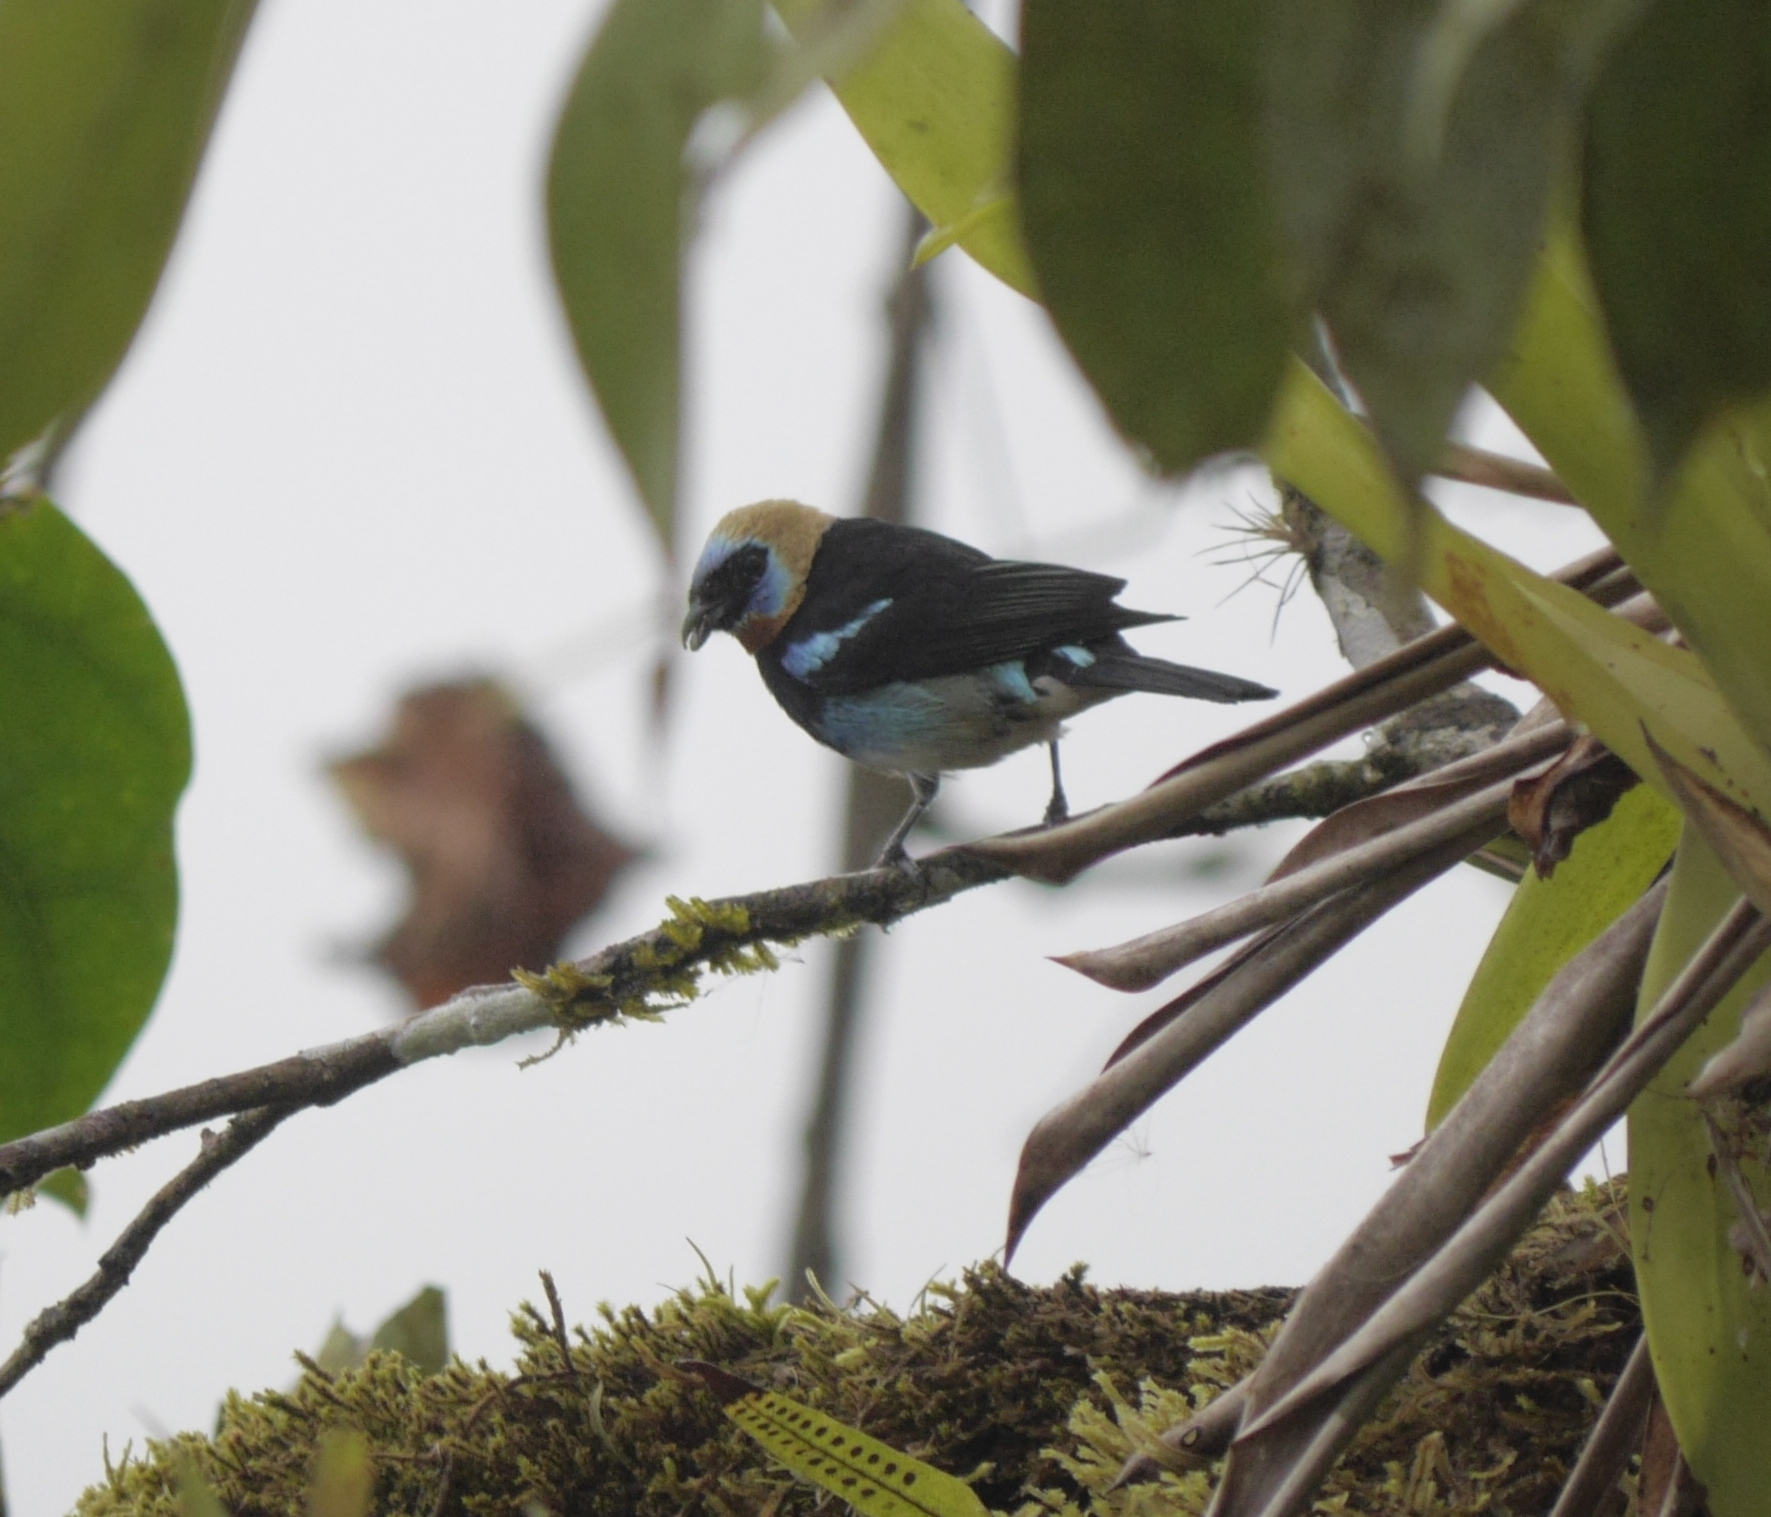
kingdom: Animalia
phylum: Chordata
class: Aves
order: Passeriformes
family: Thraupidae
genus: Stilpnia
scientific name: Stilpnia larvata
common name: Golden-hooded tanager
